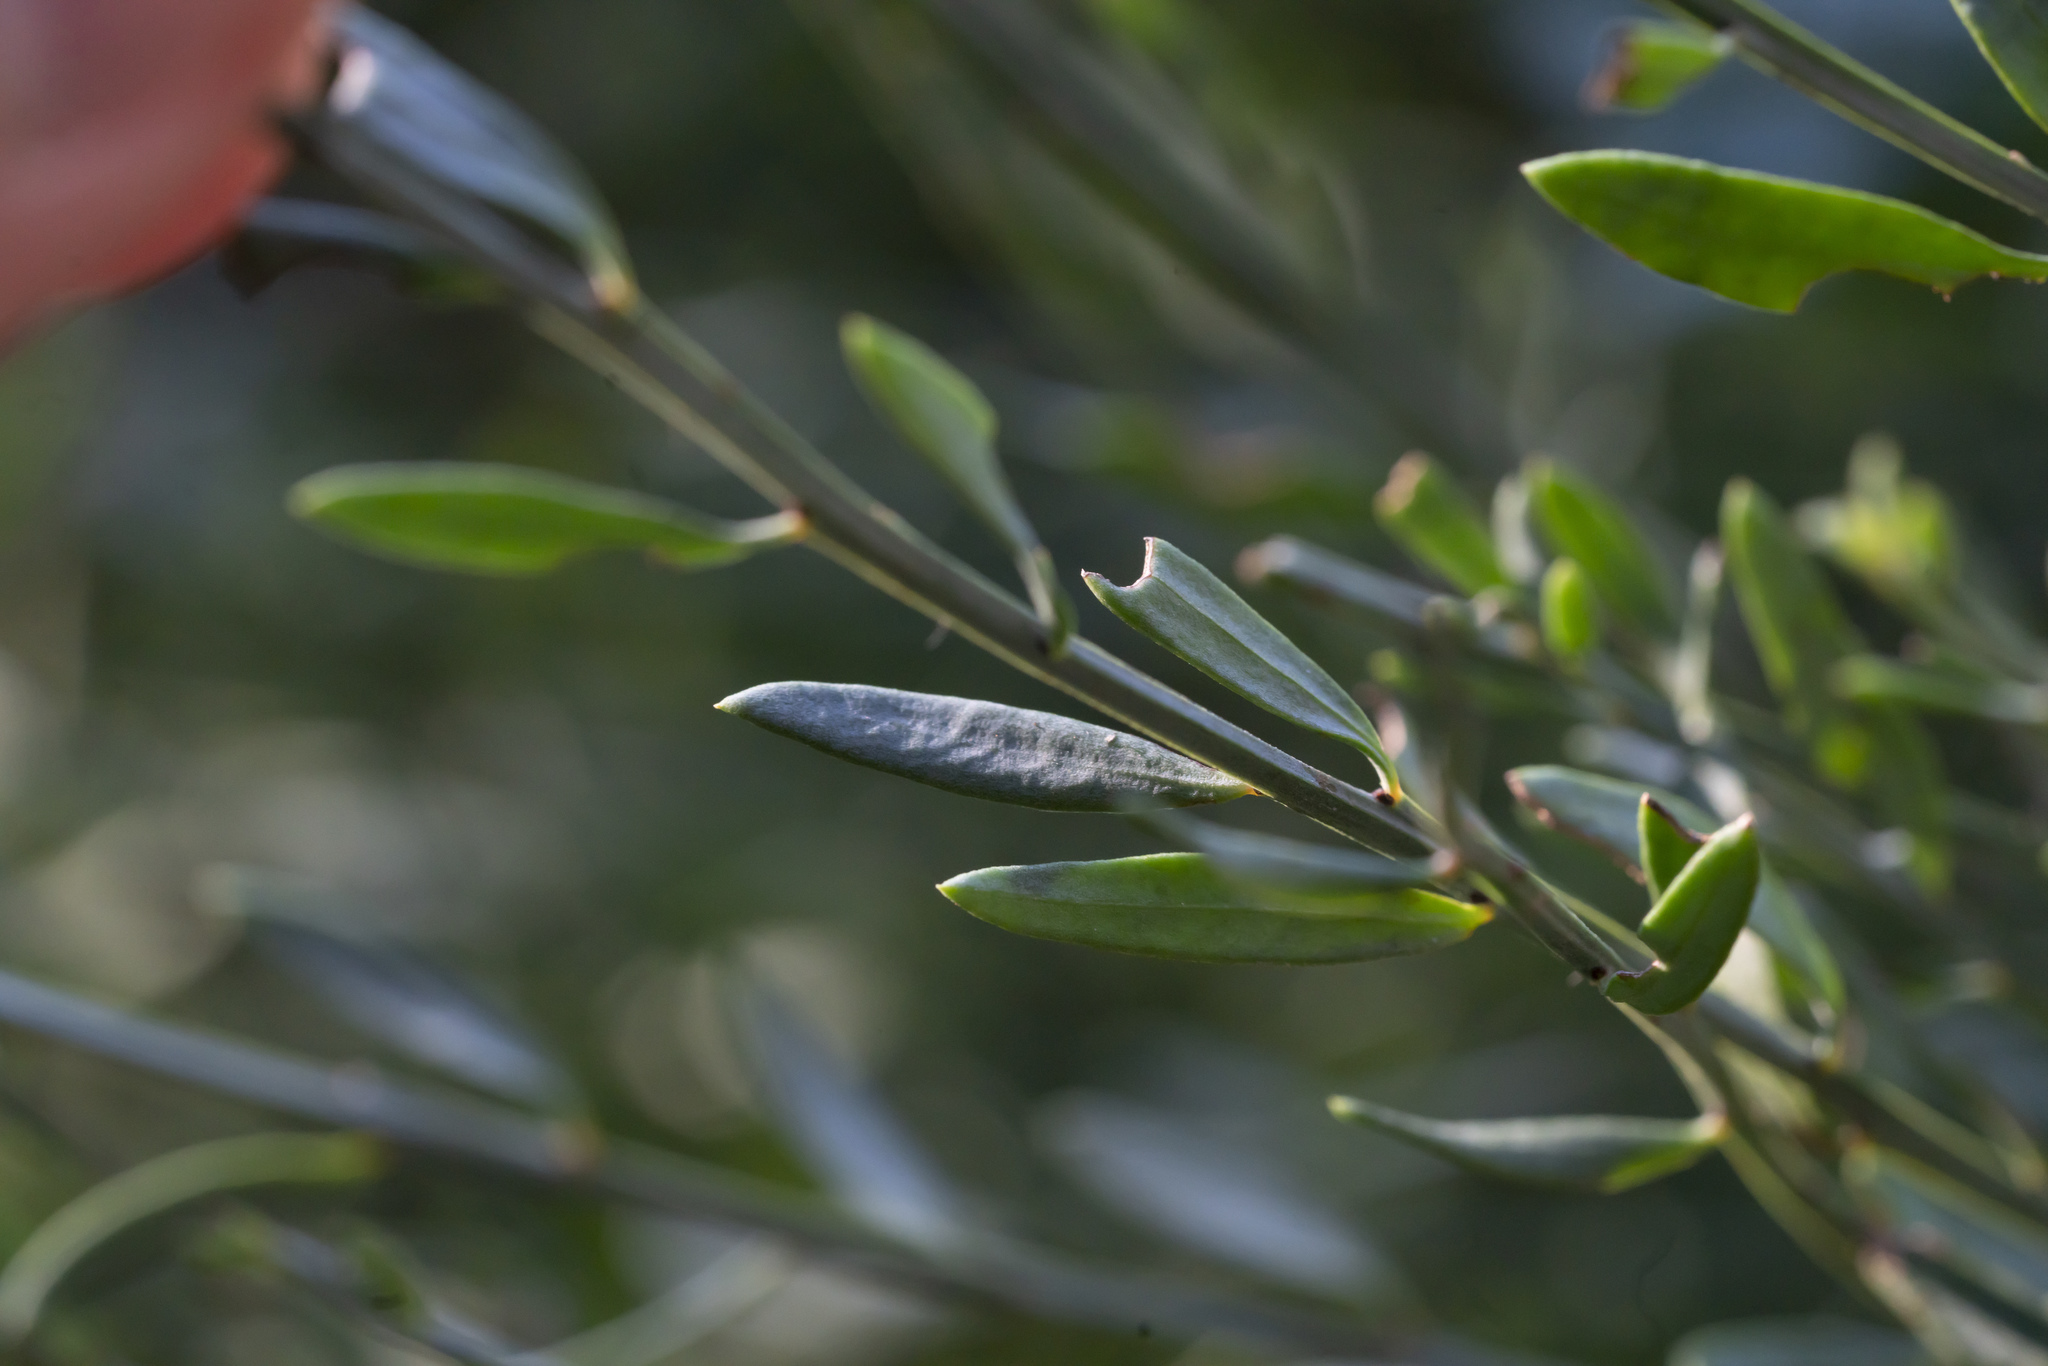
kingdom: Plantae
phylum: Tracheophyta
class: Magnoliopsida
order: Santalales
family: Santalaceae
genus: Osyris
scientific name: Osyris alba
